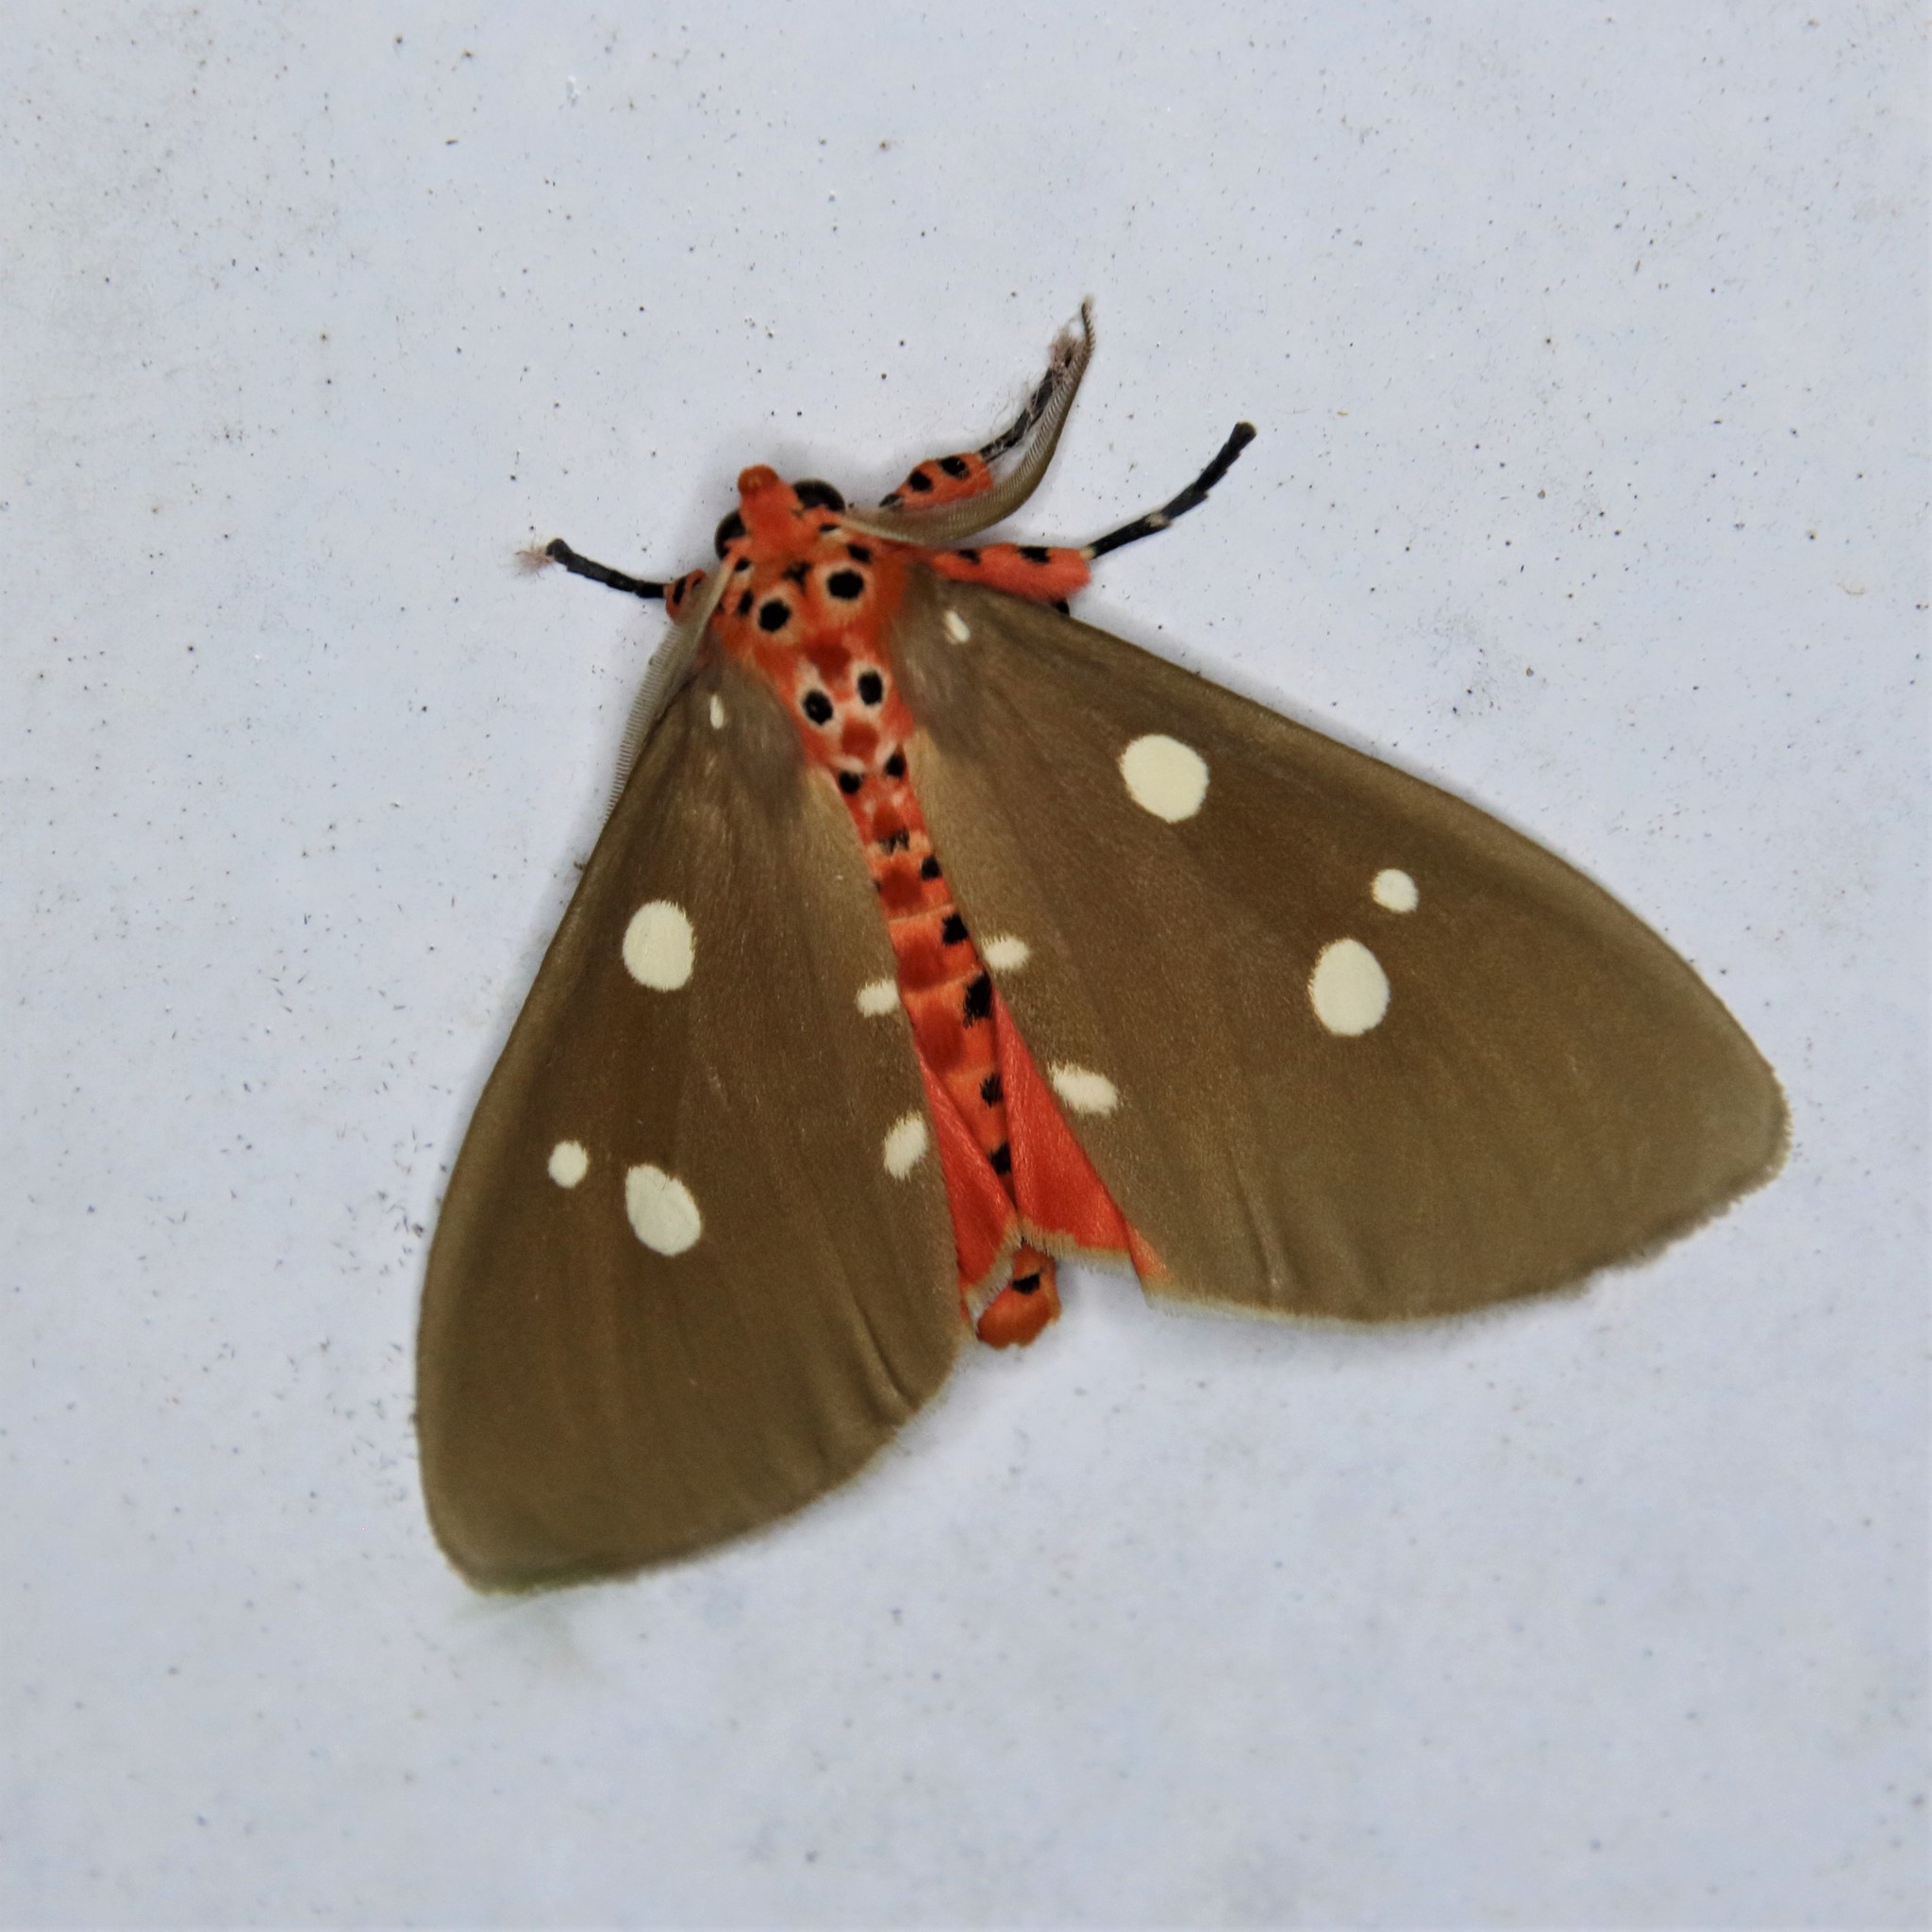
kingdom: Animalia
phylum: Arthropoda
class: Insecta
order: Lepidoptera
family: Erebidae
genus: Tinolius
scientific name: Tinolius eburneigutta
